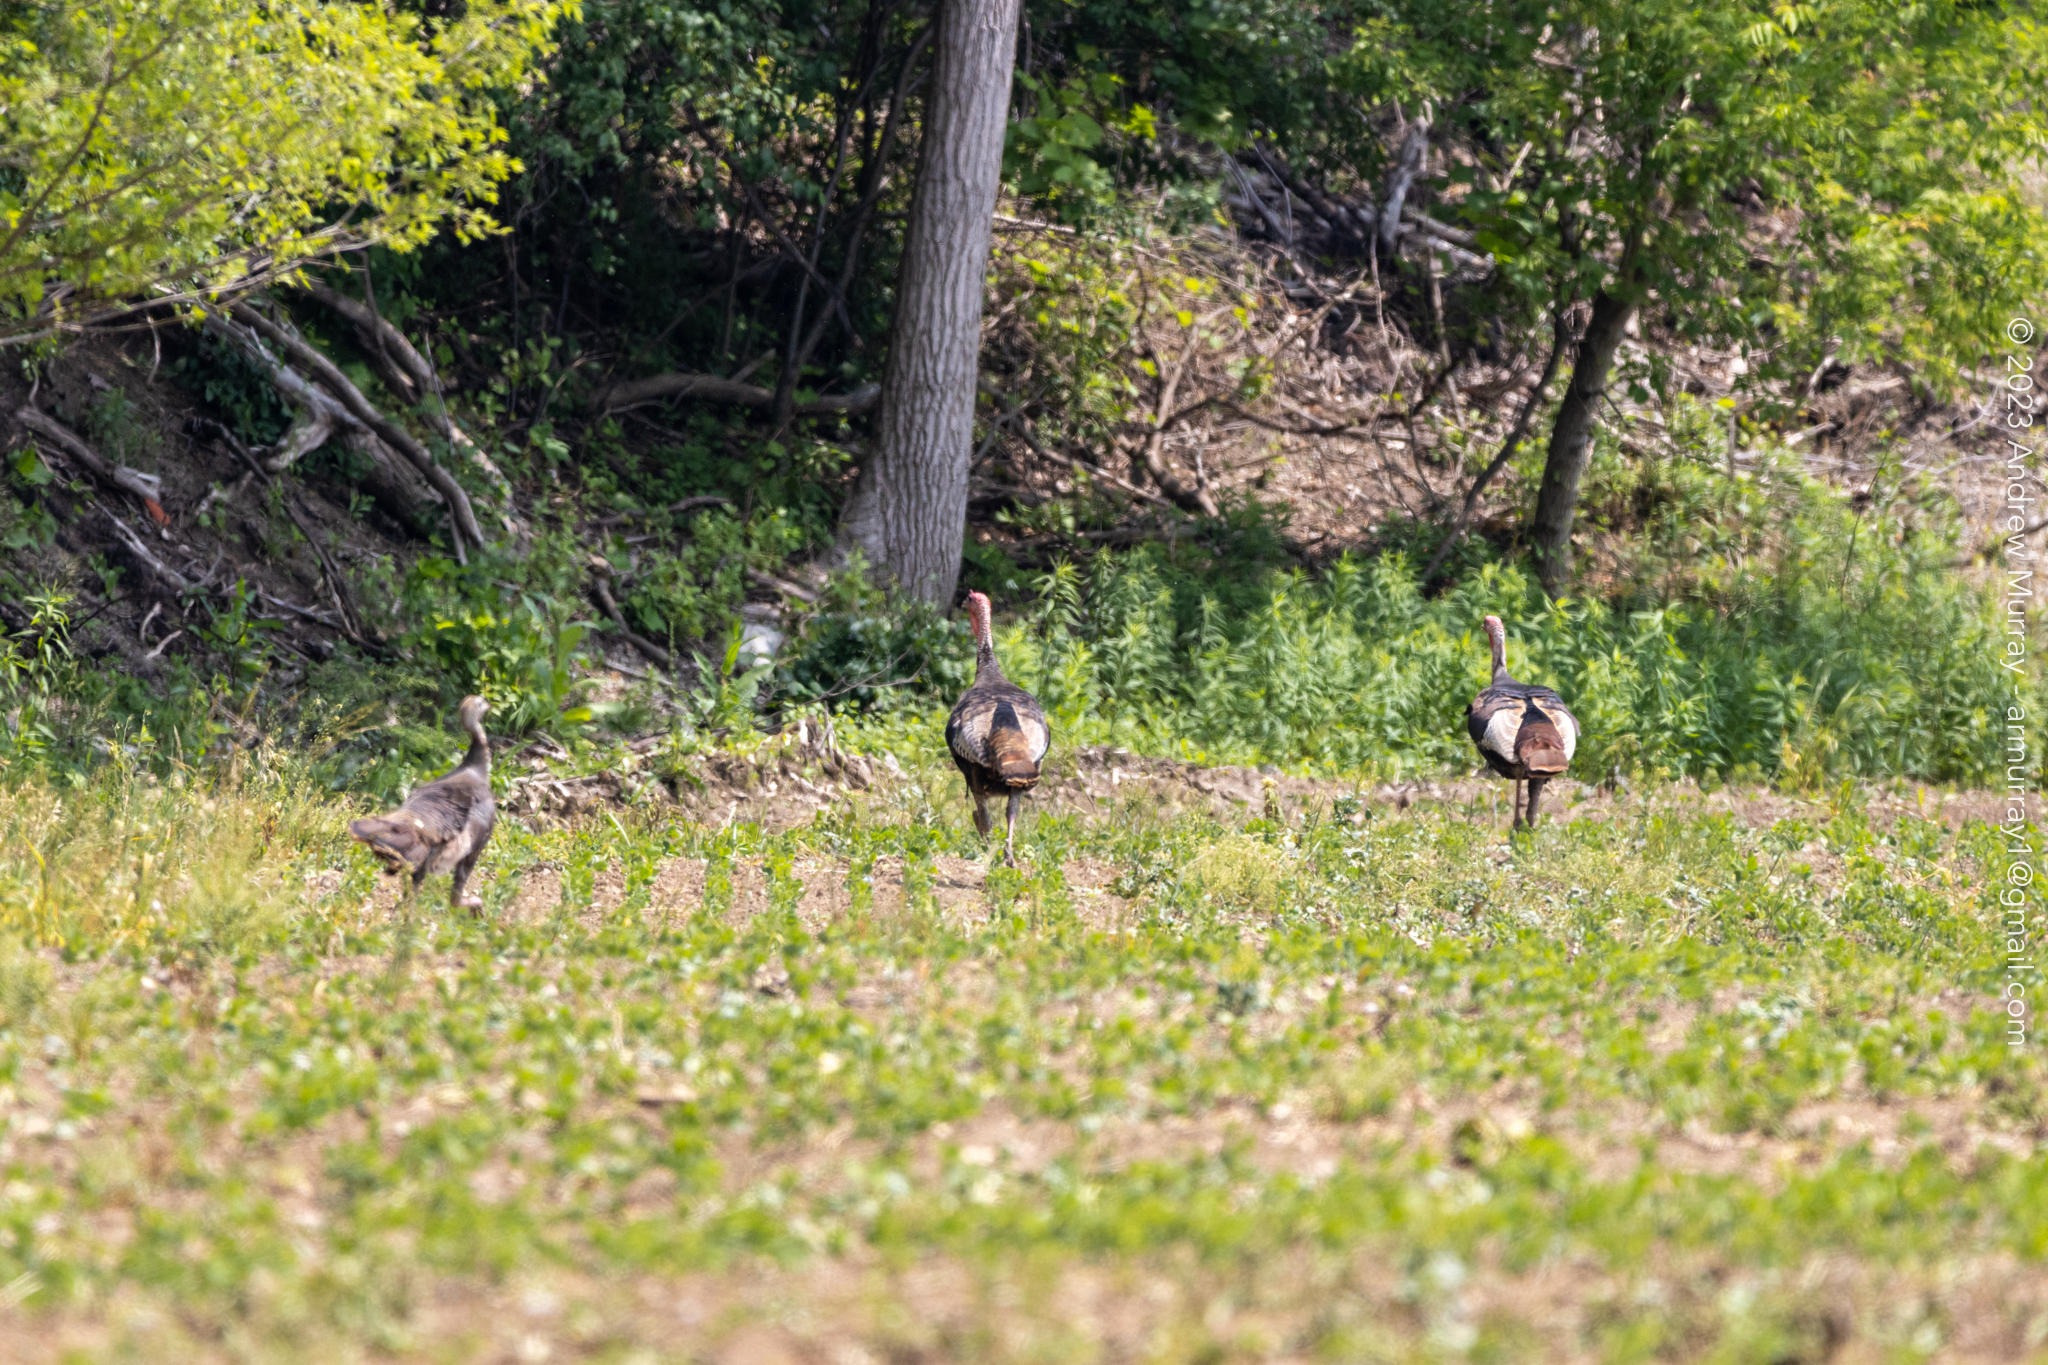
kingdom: Animalia
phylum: Chordata
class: Aves
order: Galliformes
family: Phasianidae
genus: Meleagris
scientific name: Meleagris gallopavo
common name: Wild turkey
